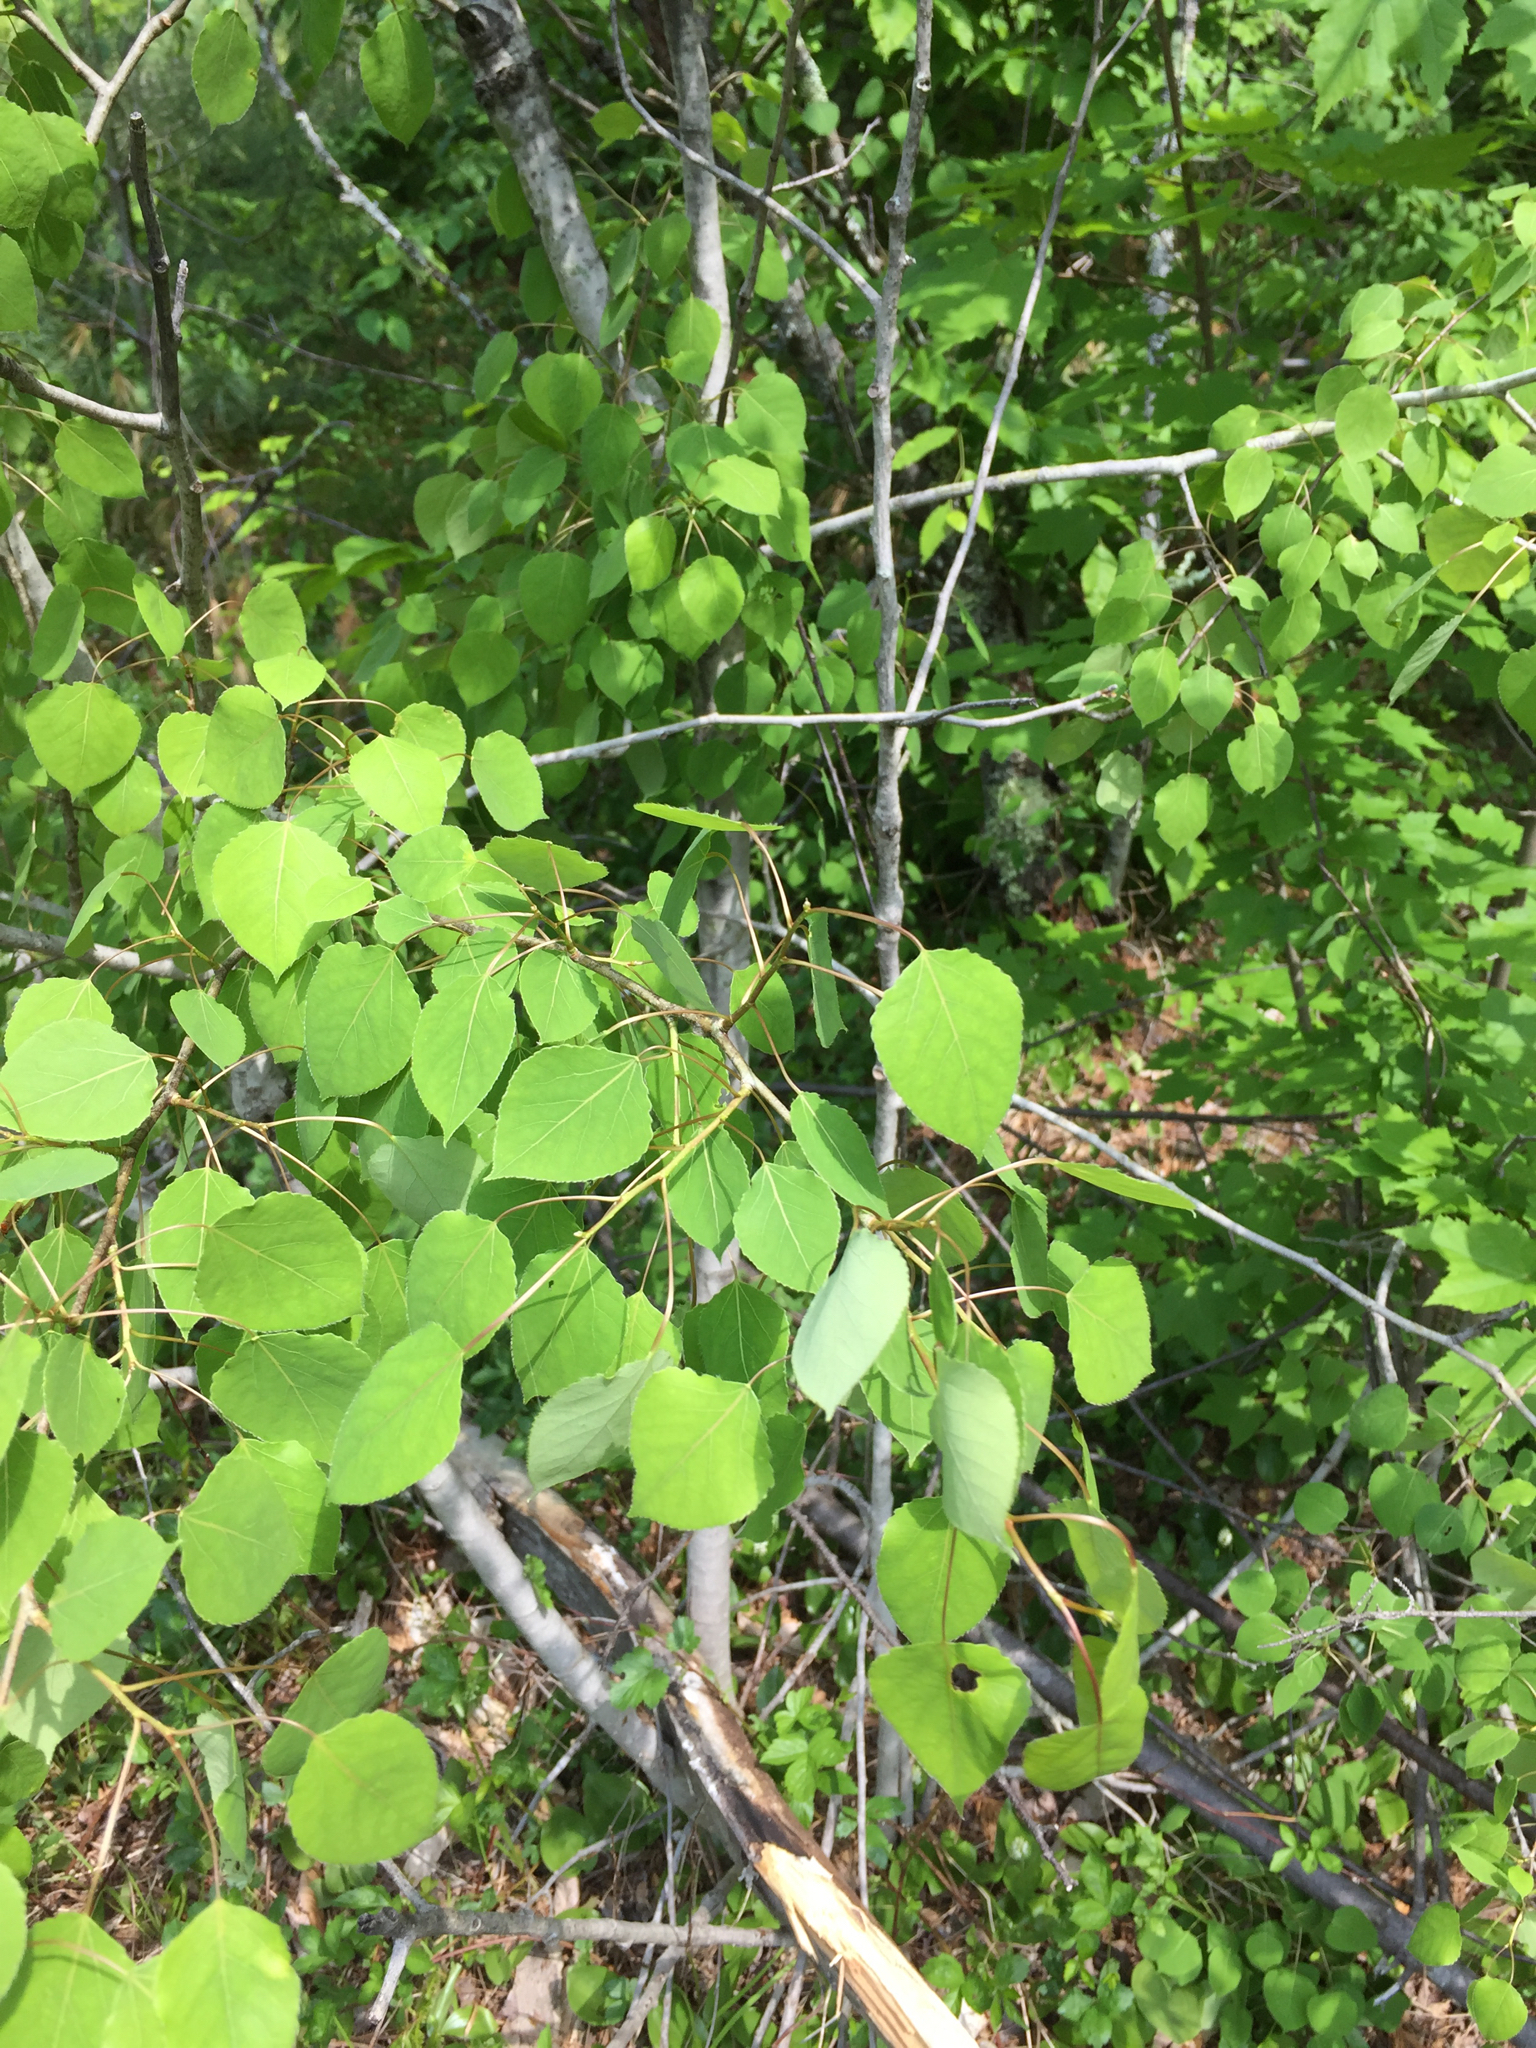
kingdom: Plantae
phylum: Tracheophyta
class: Magnoliopsida
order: Malpighiales
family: Salicaceae
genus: Populus
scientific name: Populus tremuloides
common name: Quaking aspen
